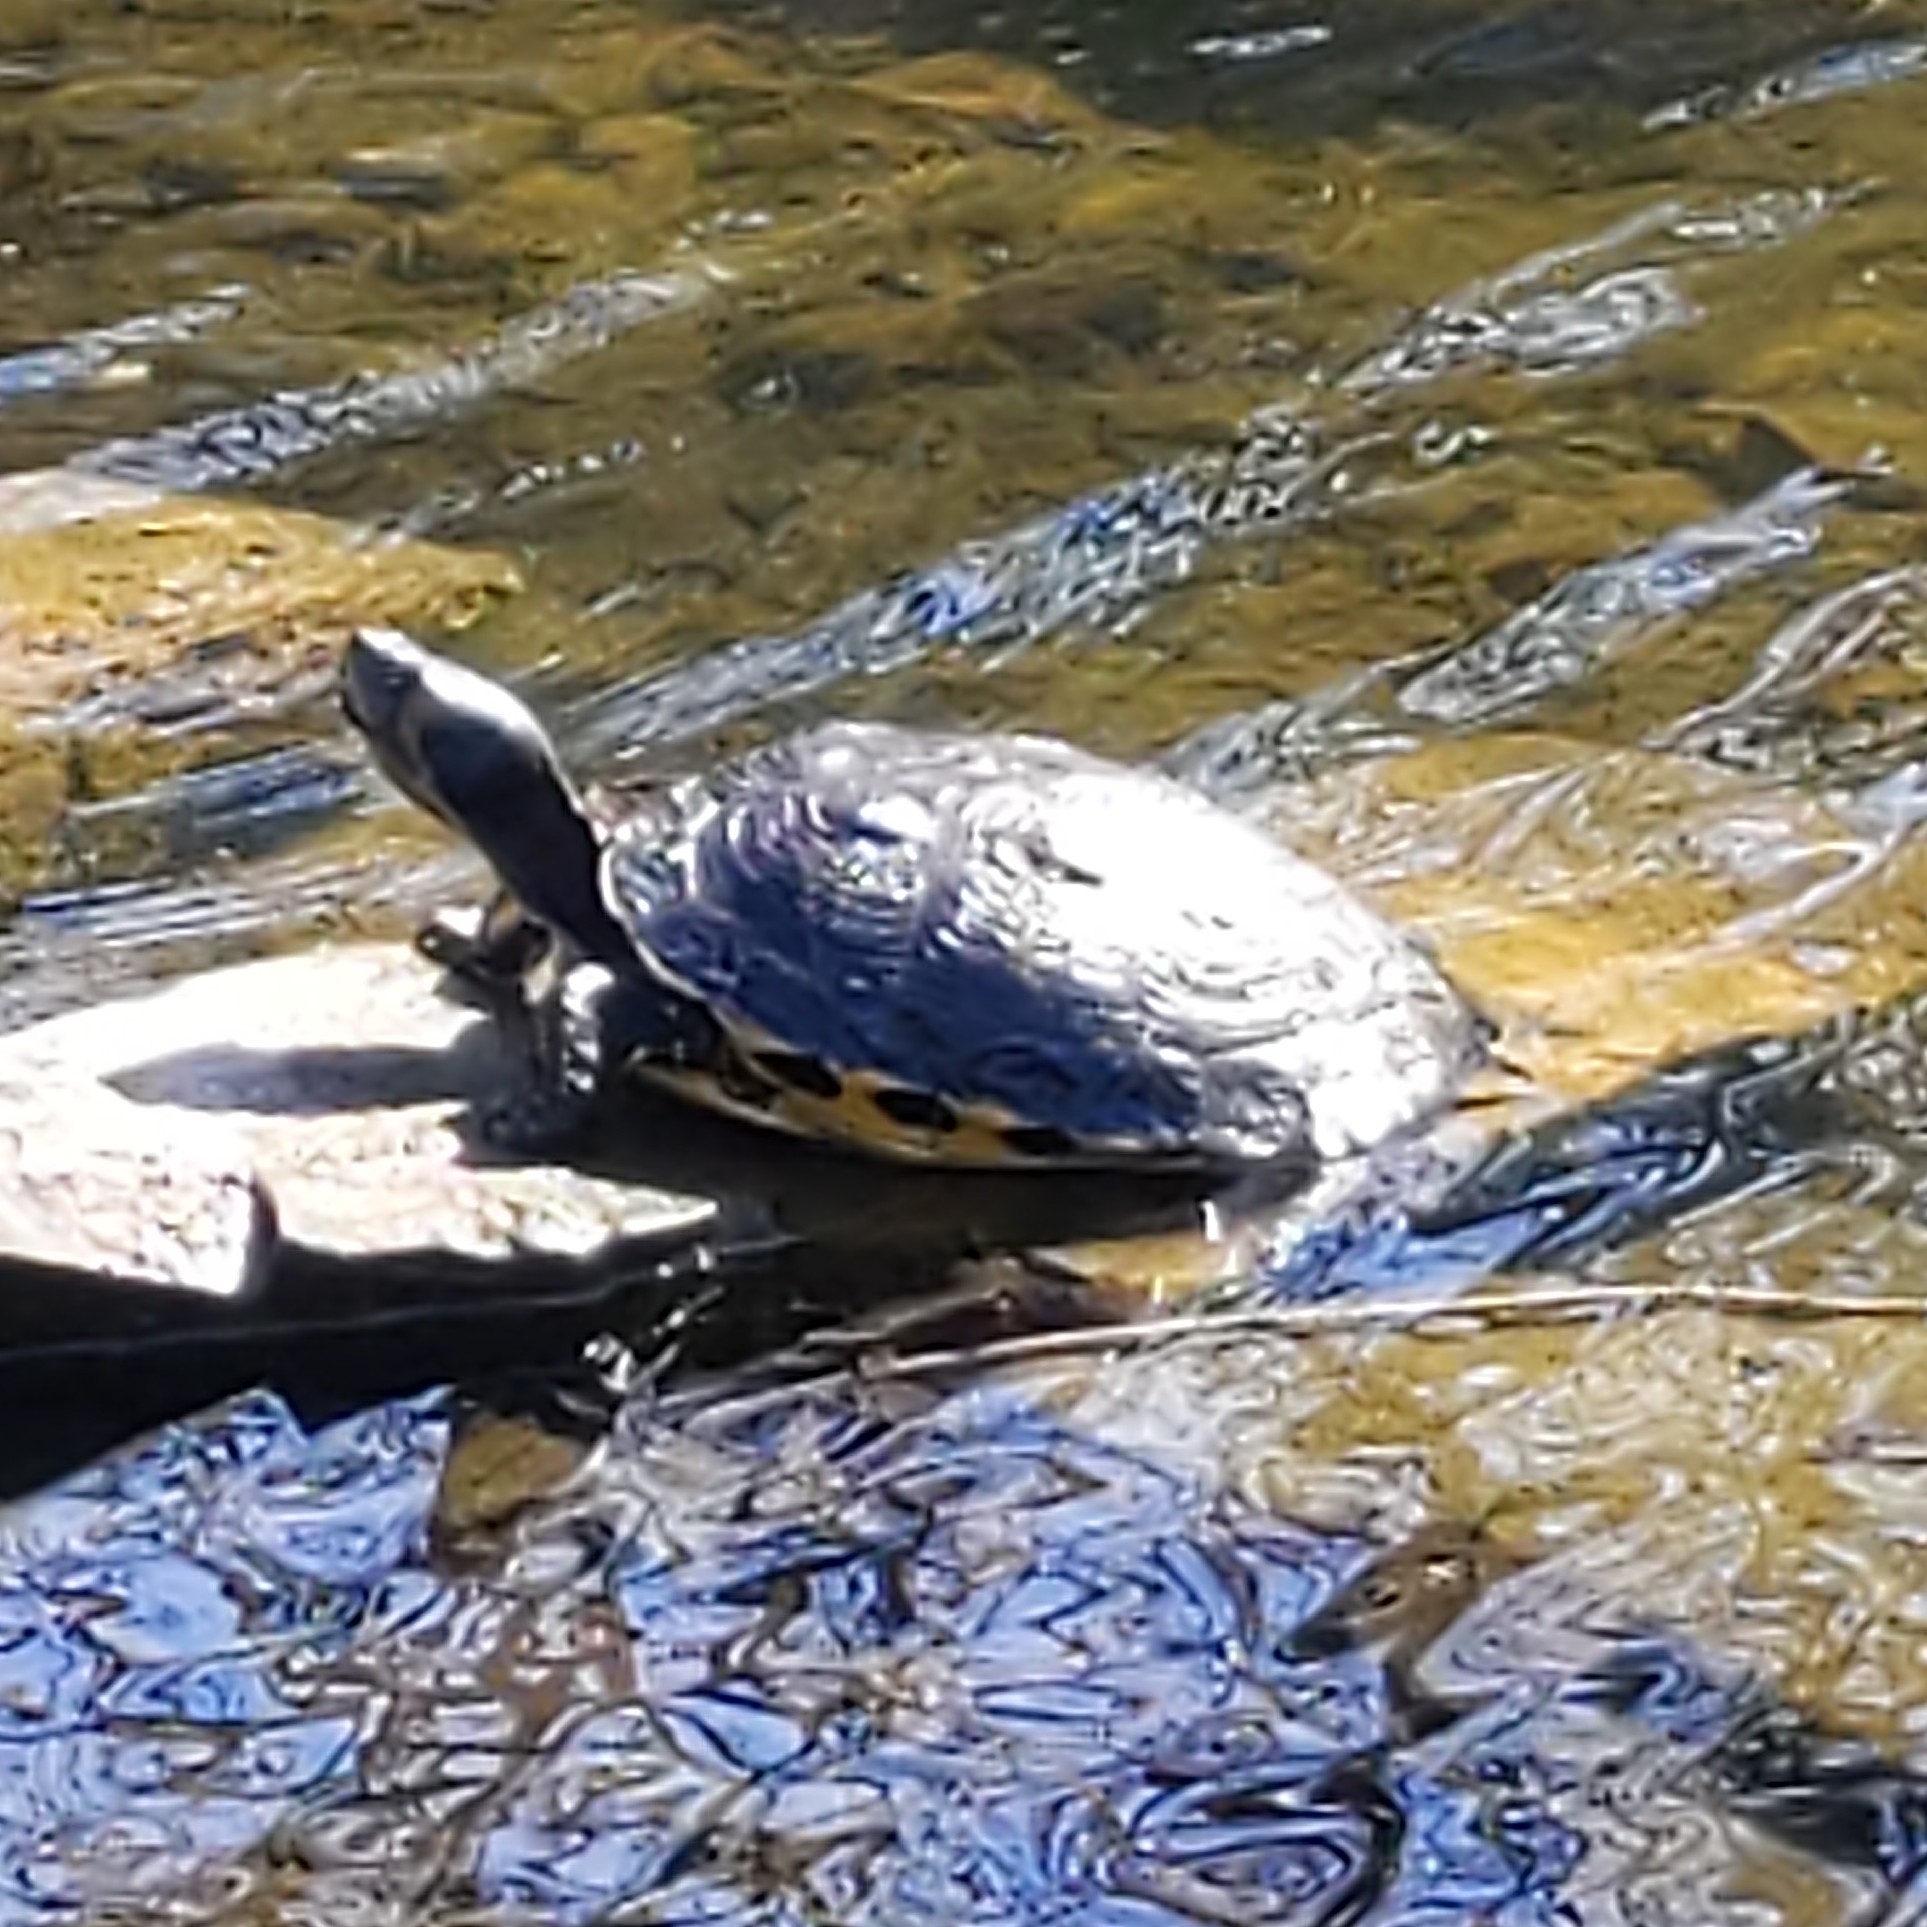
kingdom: Animalia
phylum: Chordata
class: Testudines
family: Emydidae
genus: Trachemys
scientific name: Trachemys scripta
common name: Slider
